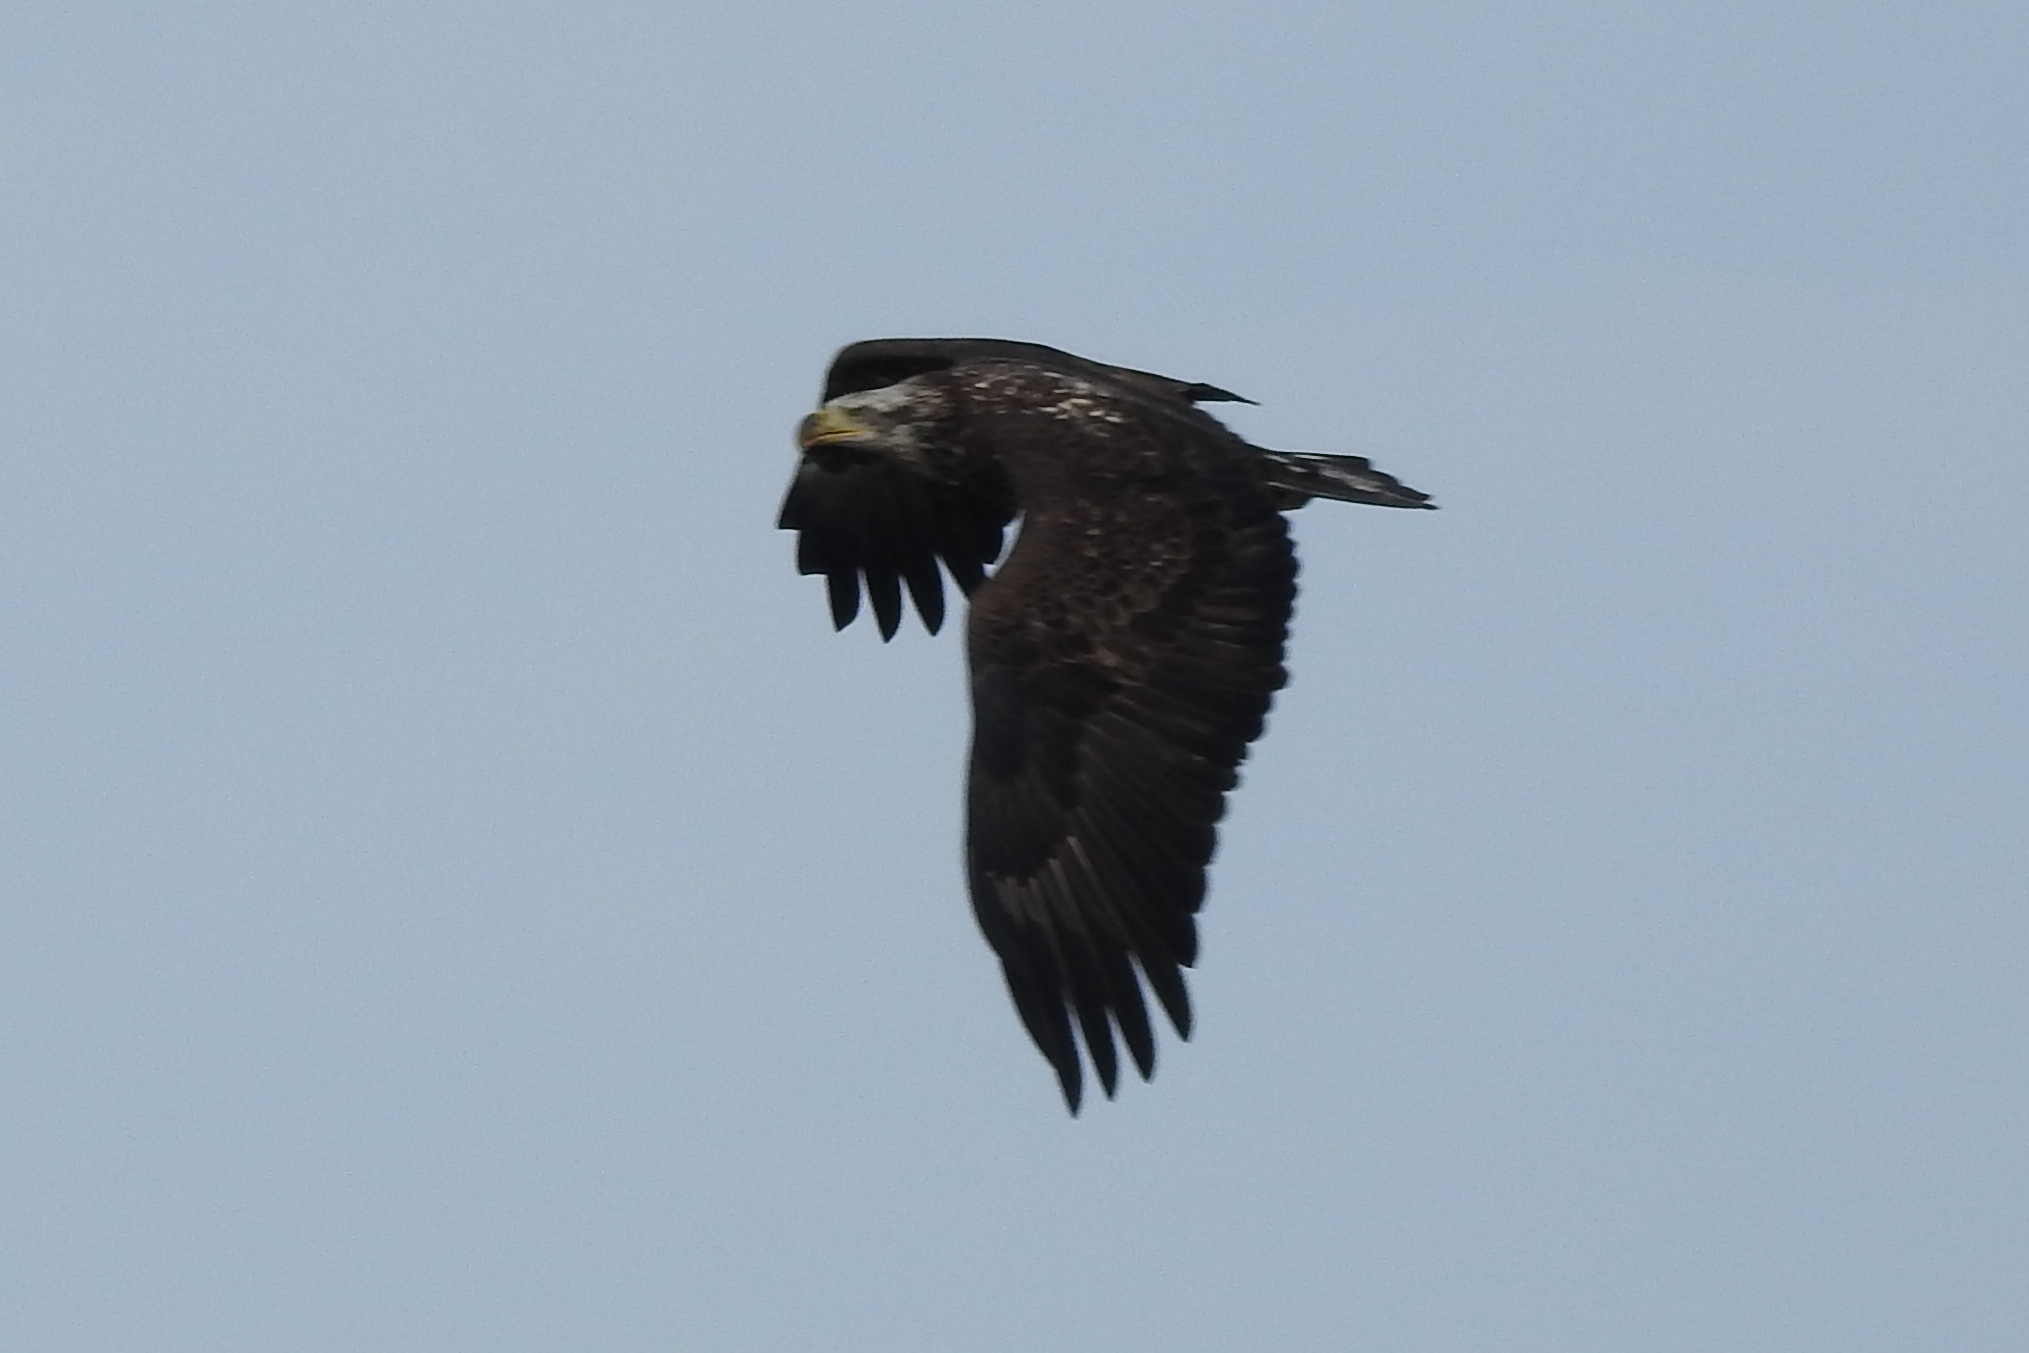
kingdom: Animalia
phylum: Chordata
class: Aves
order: Accipitriformes
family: Accipitridae
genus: Haliaeetus
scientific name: Haliaeetus leucocephalus
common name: Bald eagle
